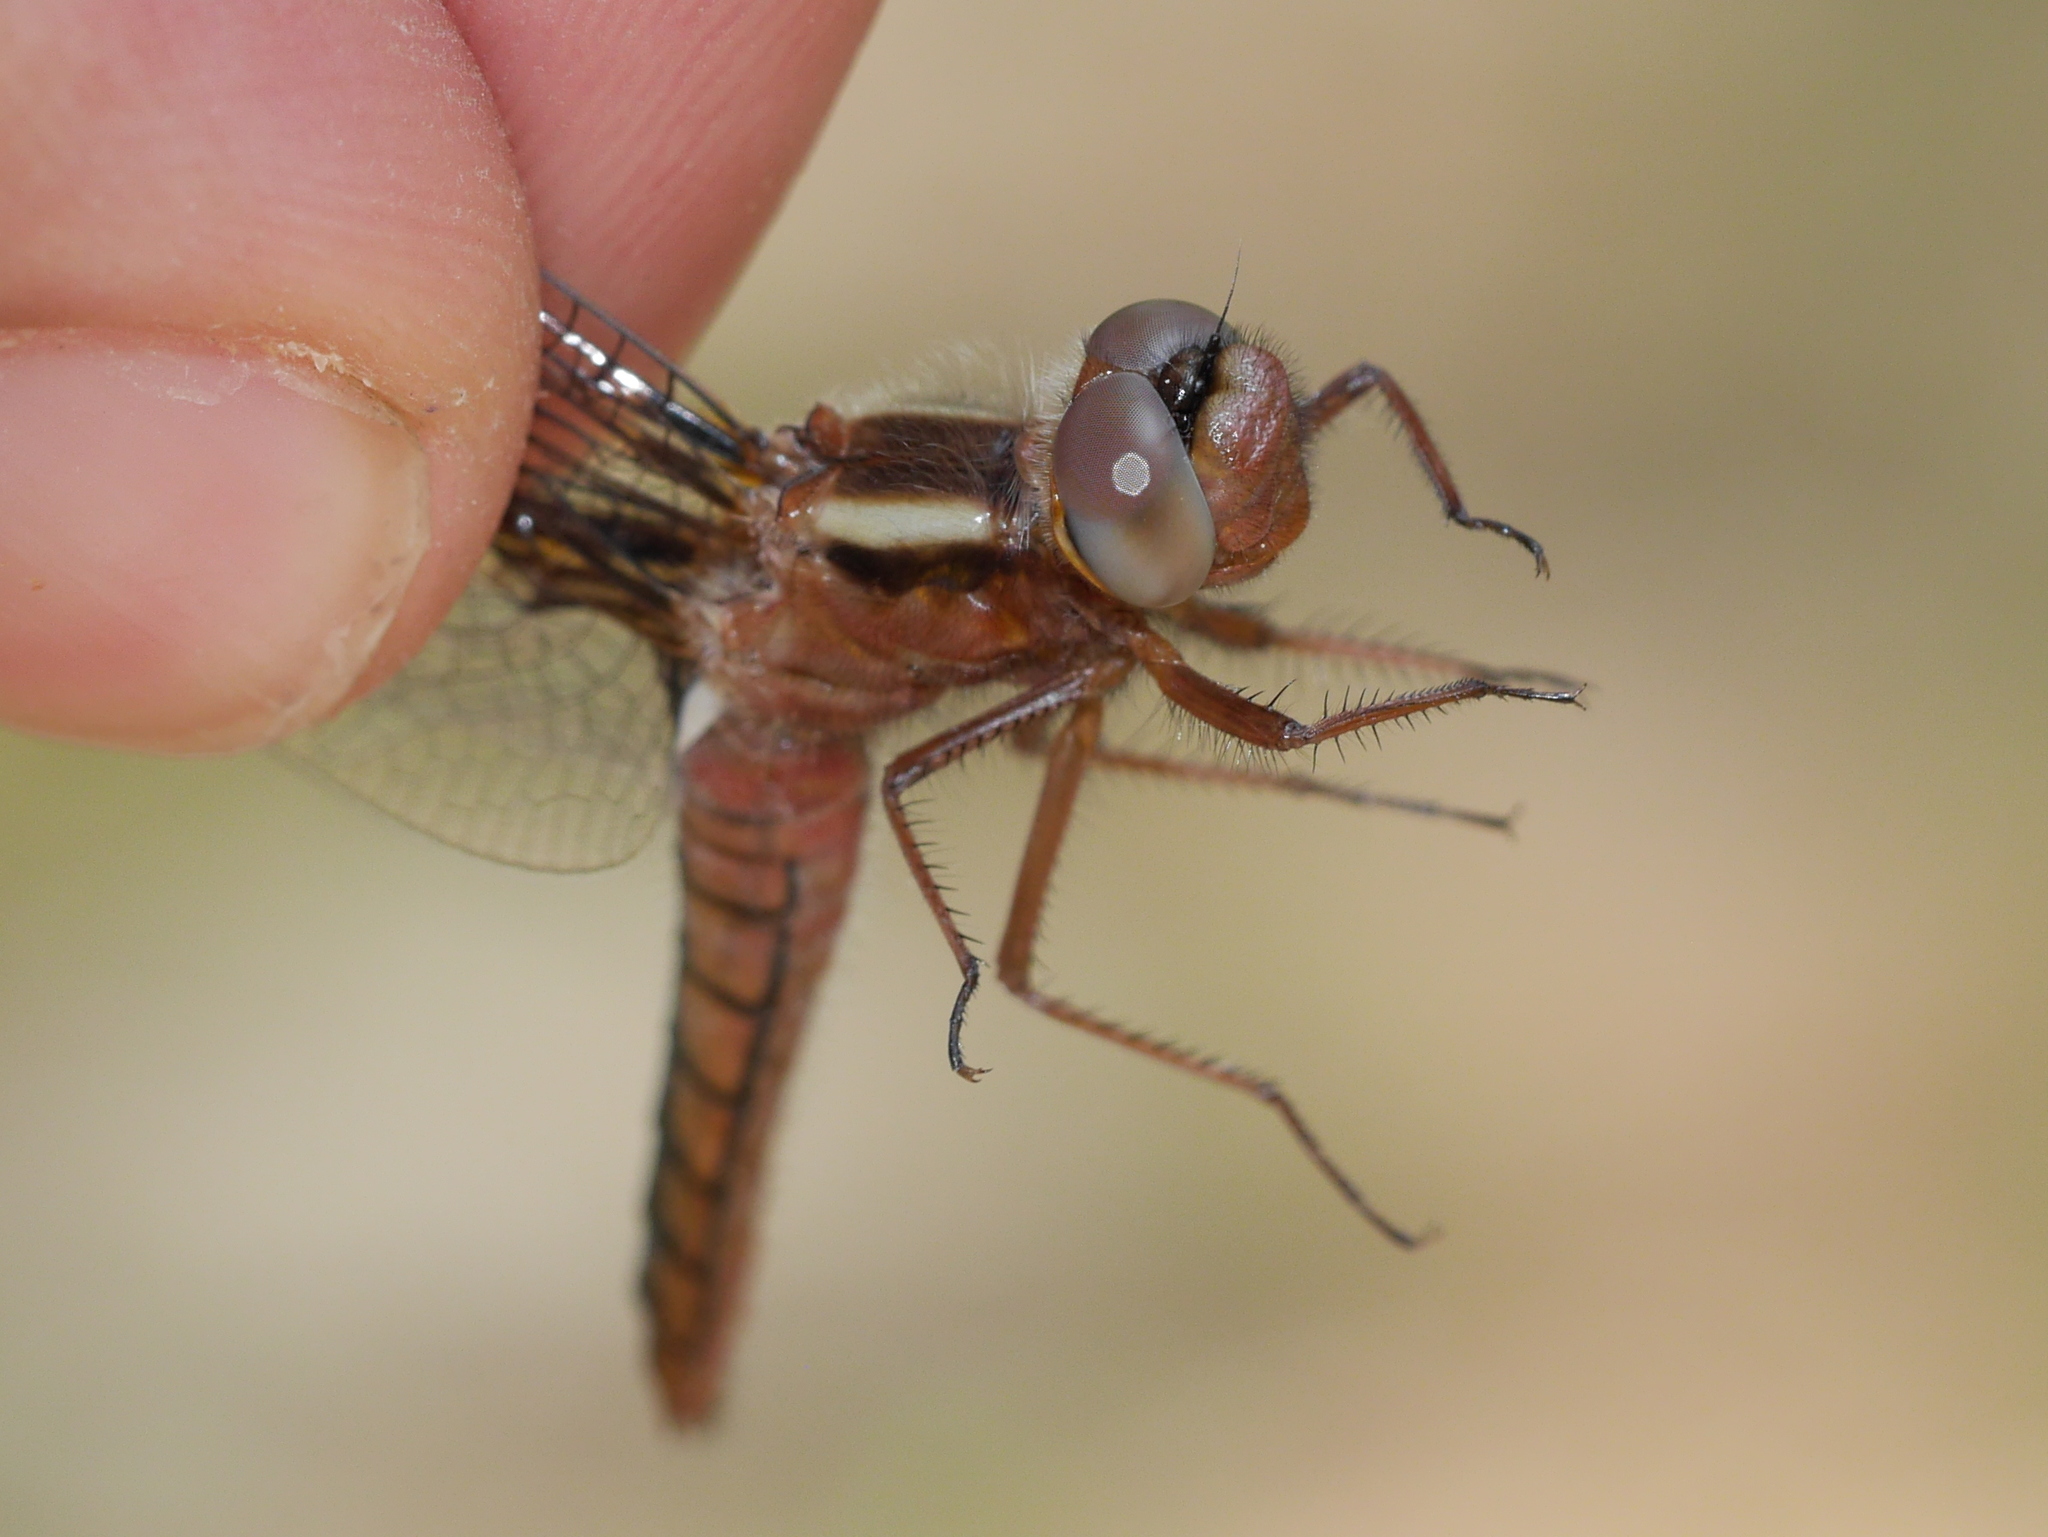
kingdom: Animalia
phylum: Arthropoda
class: Insecta
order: Odonata
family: Libellulidae
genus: Ladona
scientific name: Ladona deplanata
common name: Blue corporal
